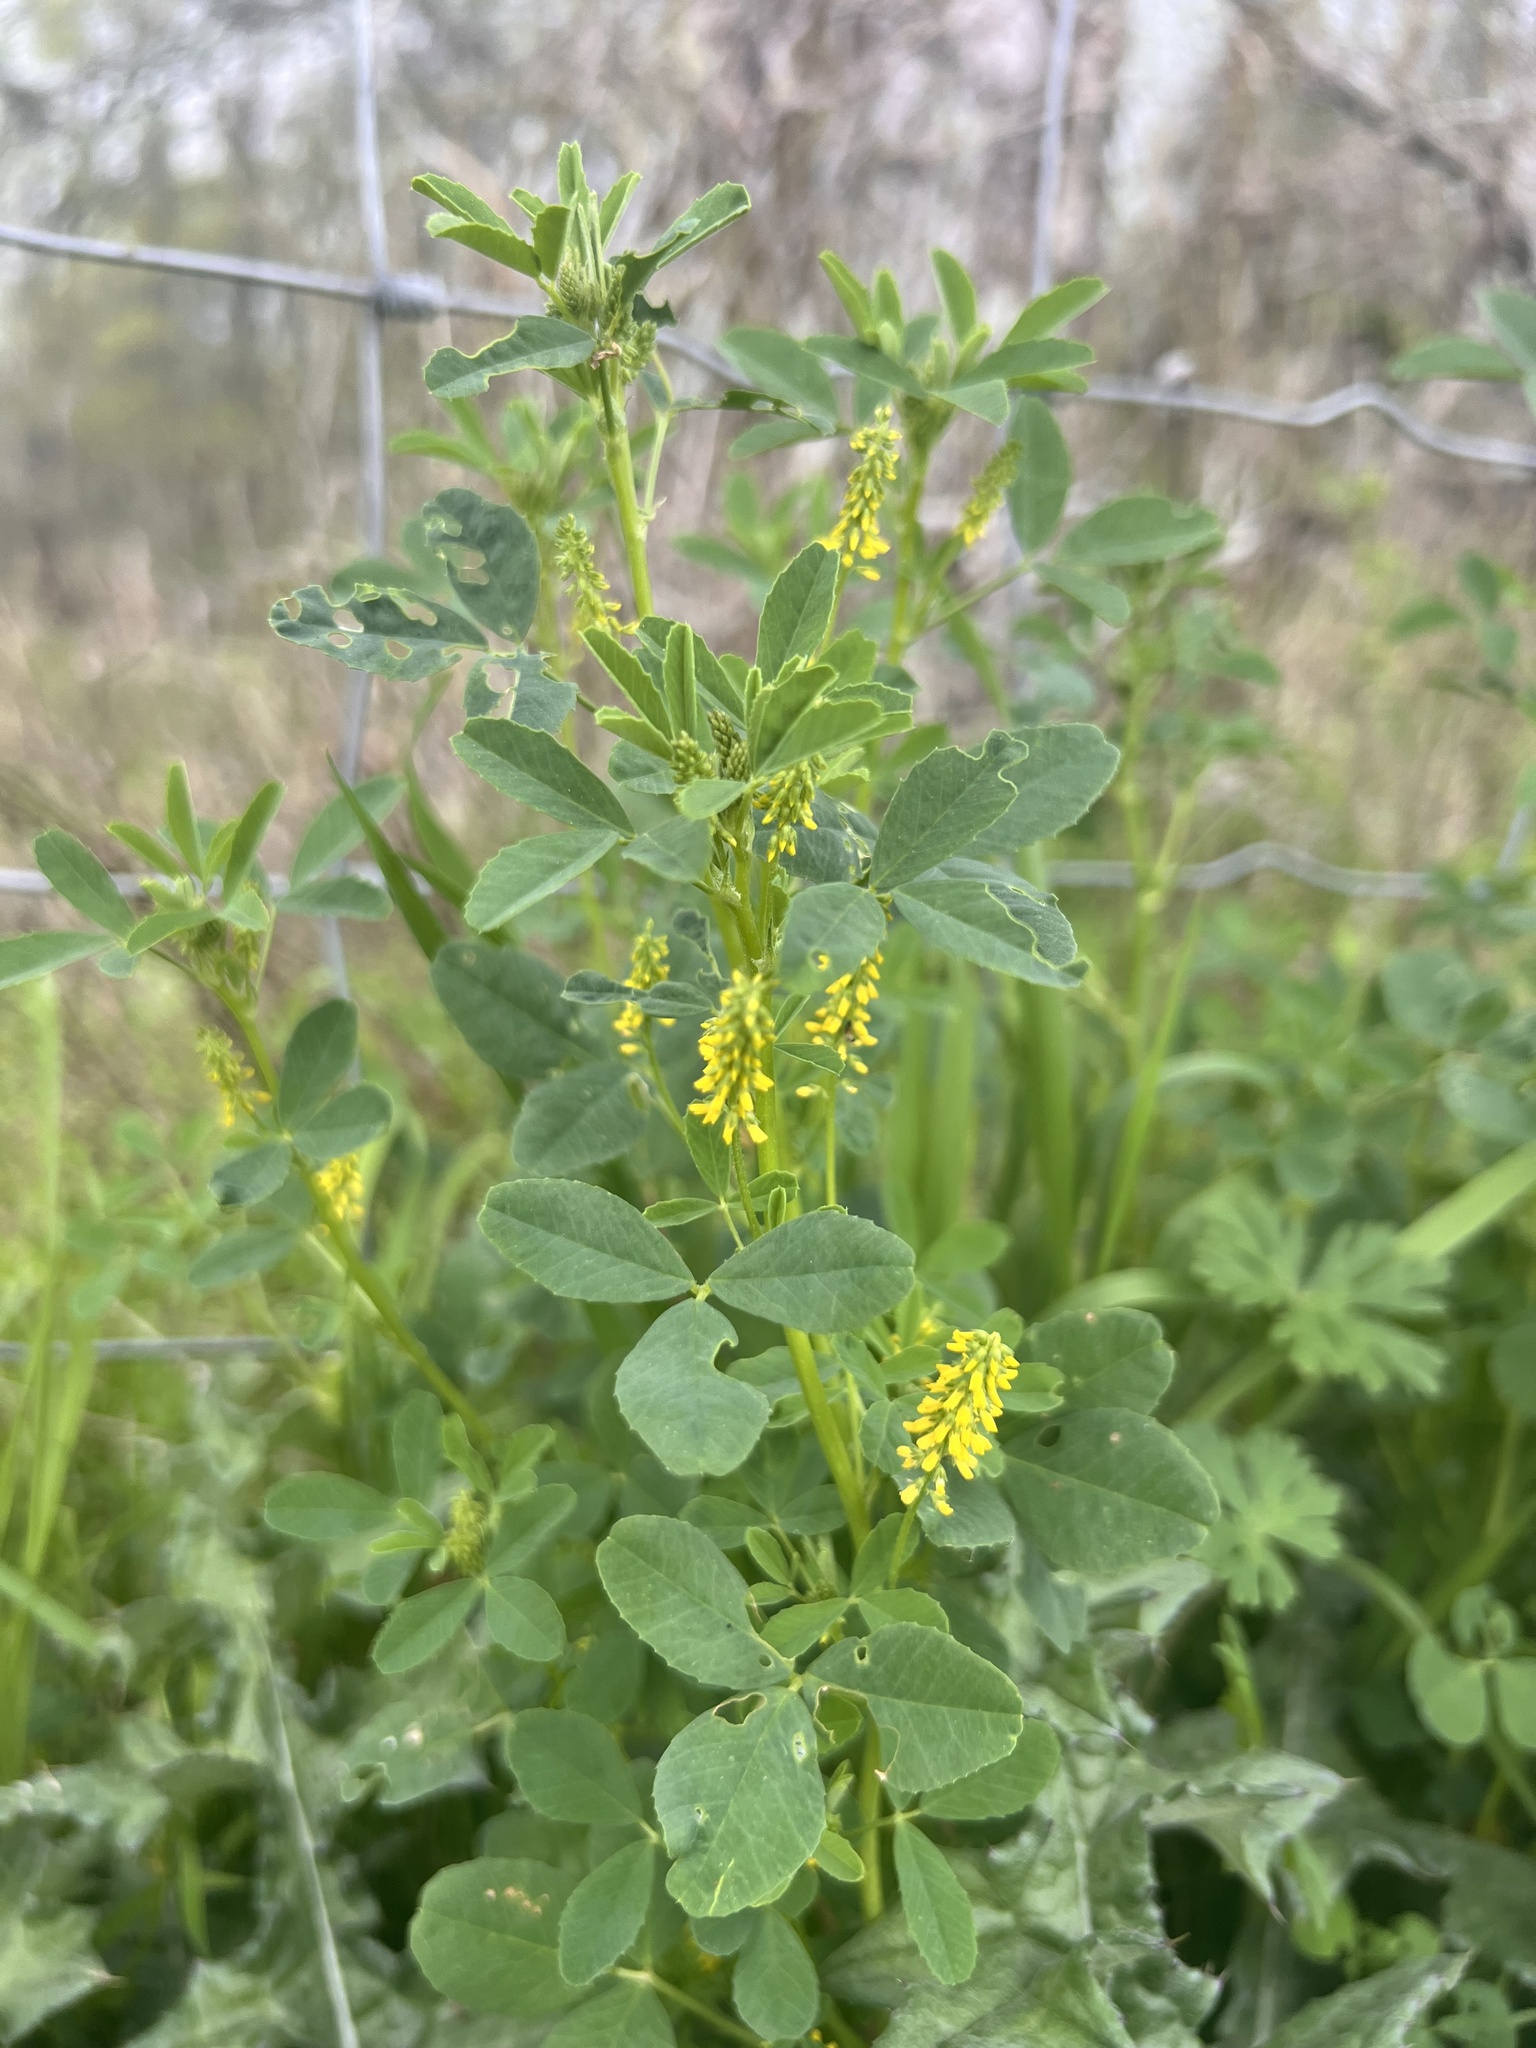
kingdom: Plantae
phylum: Tracheophyta
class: Magnoliopsida
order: Fabales
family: Fabaceae
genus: Melilotus
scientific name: Melilotus indicus
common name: Small melilot
